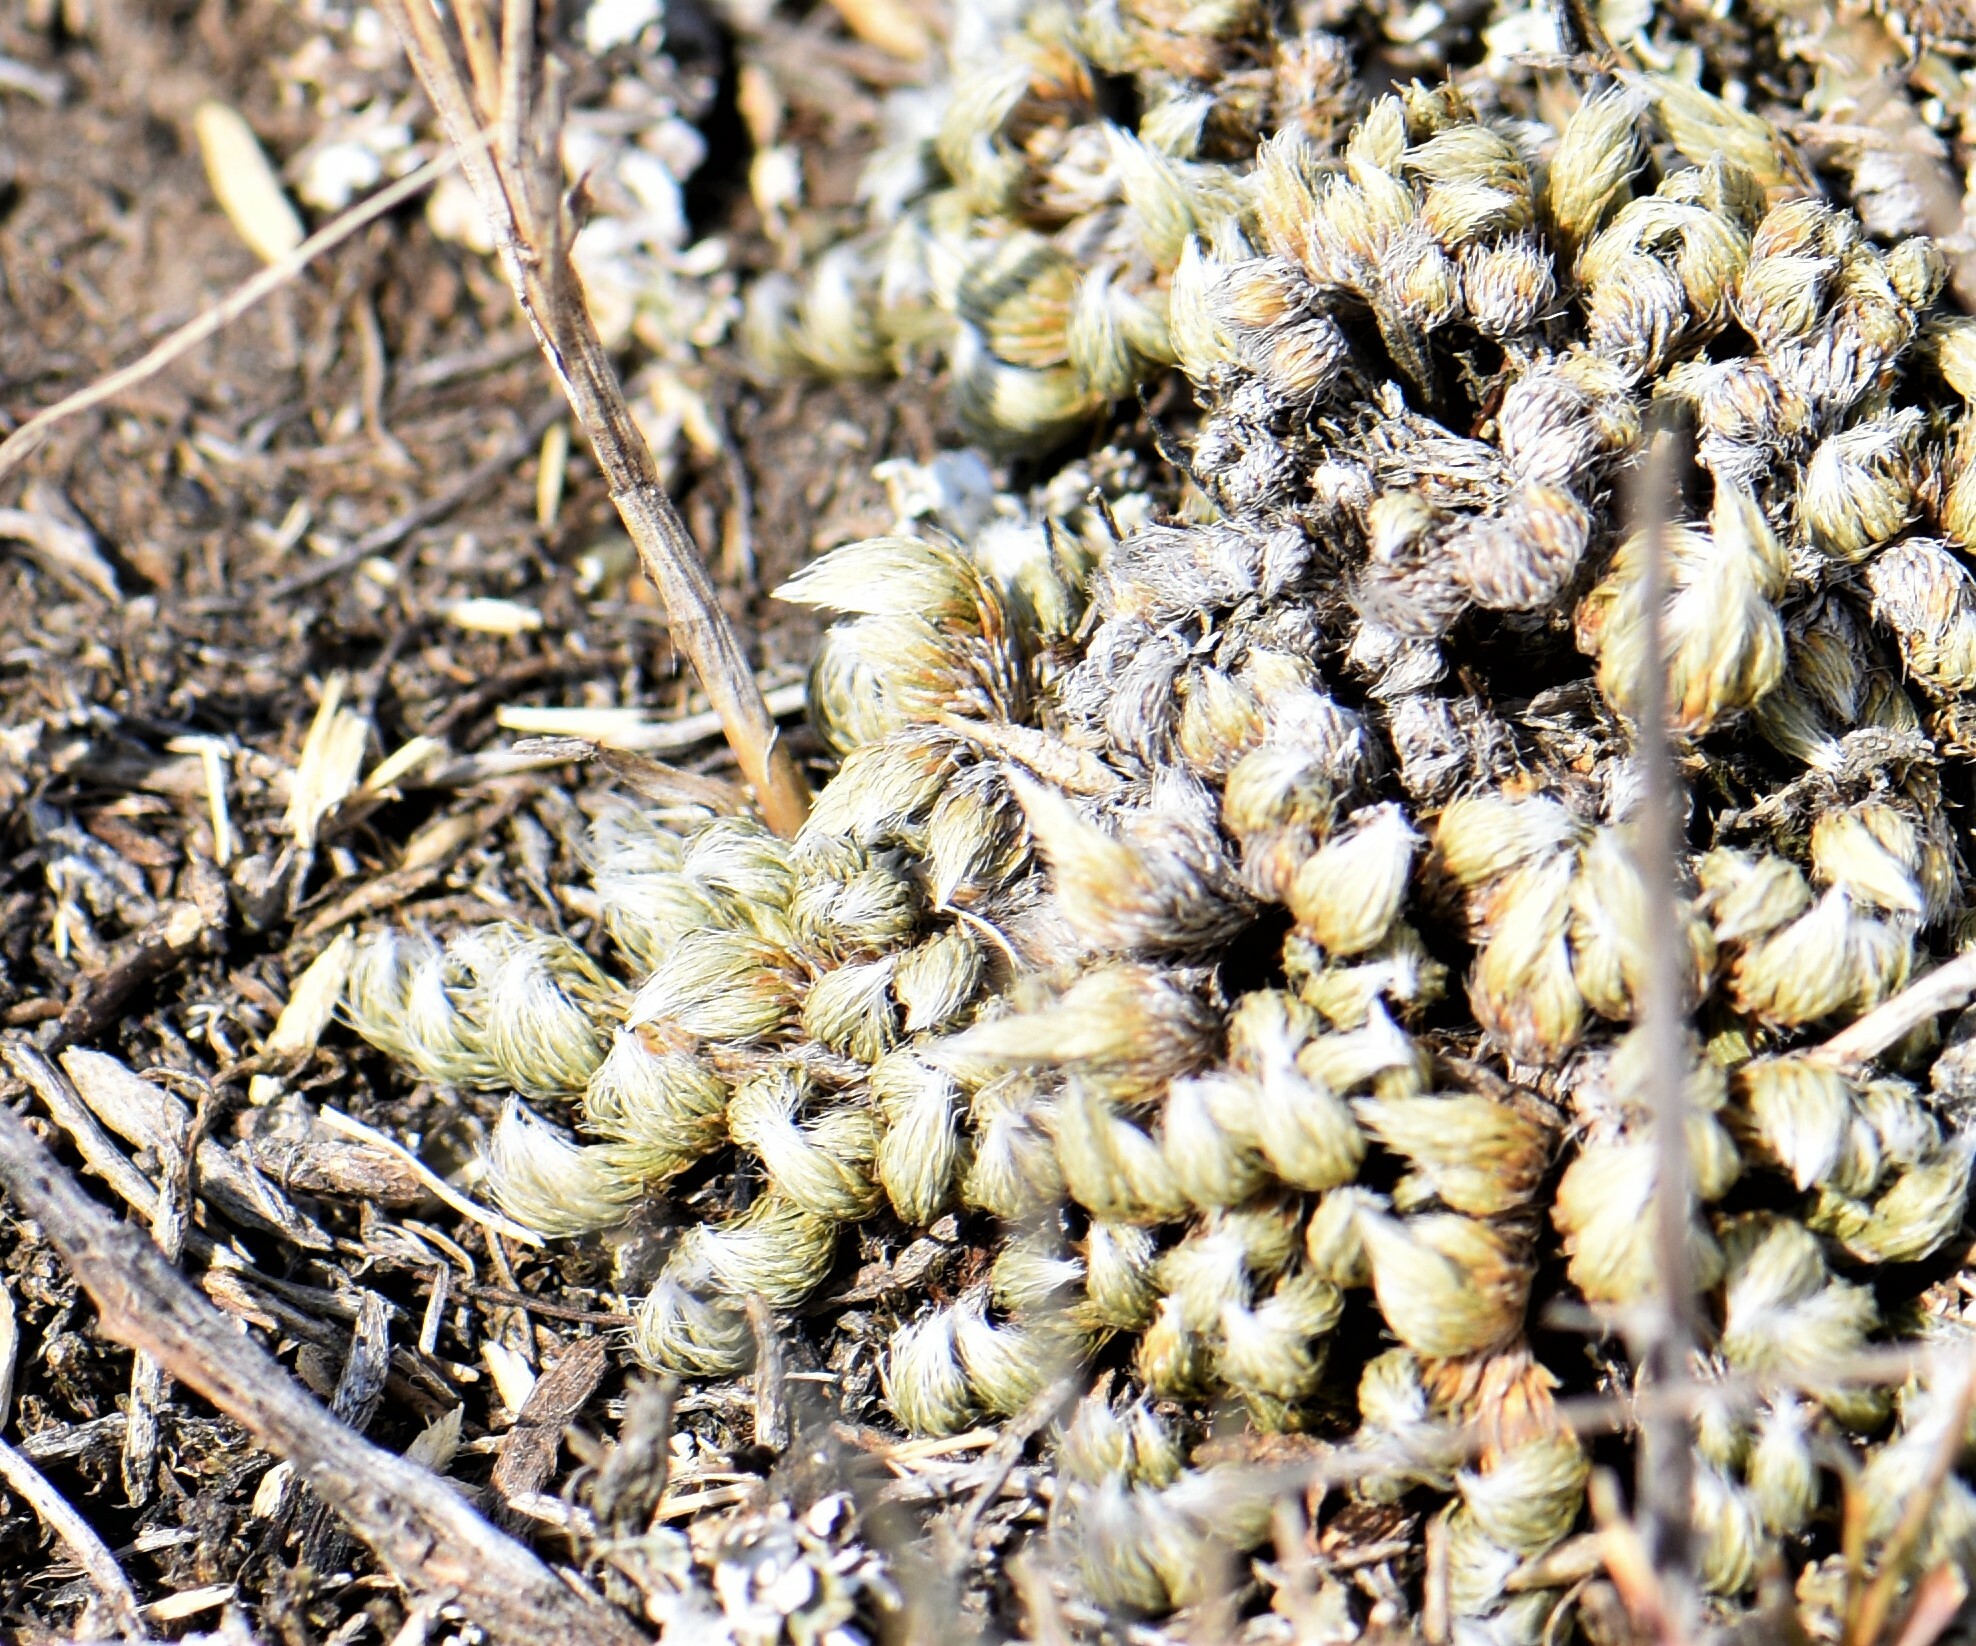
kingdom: Plantae
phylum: Tracheophyta
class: Lycopodiopsida
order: Selaginellales
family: Selaginellaceae
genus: Selaginella
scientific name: Selaginella densa
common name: Mountain spike-moss
